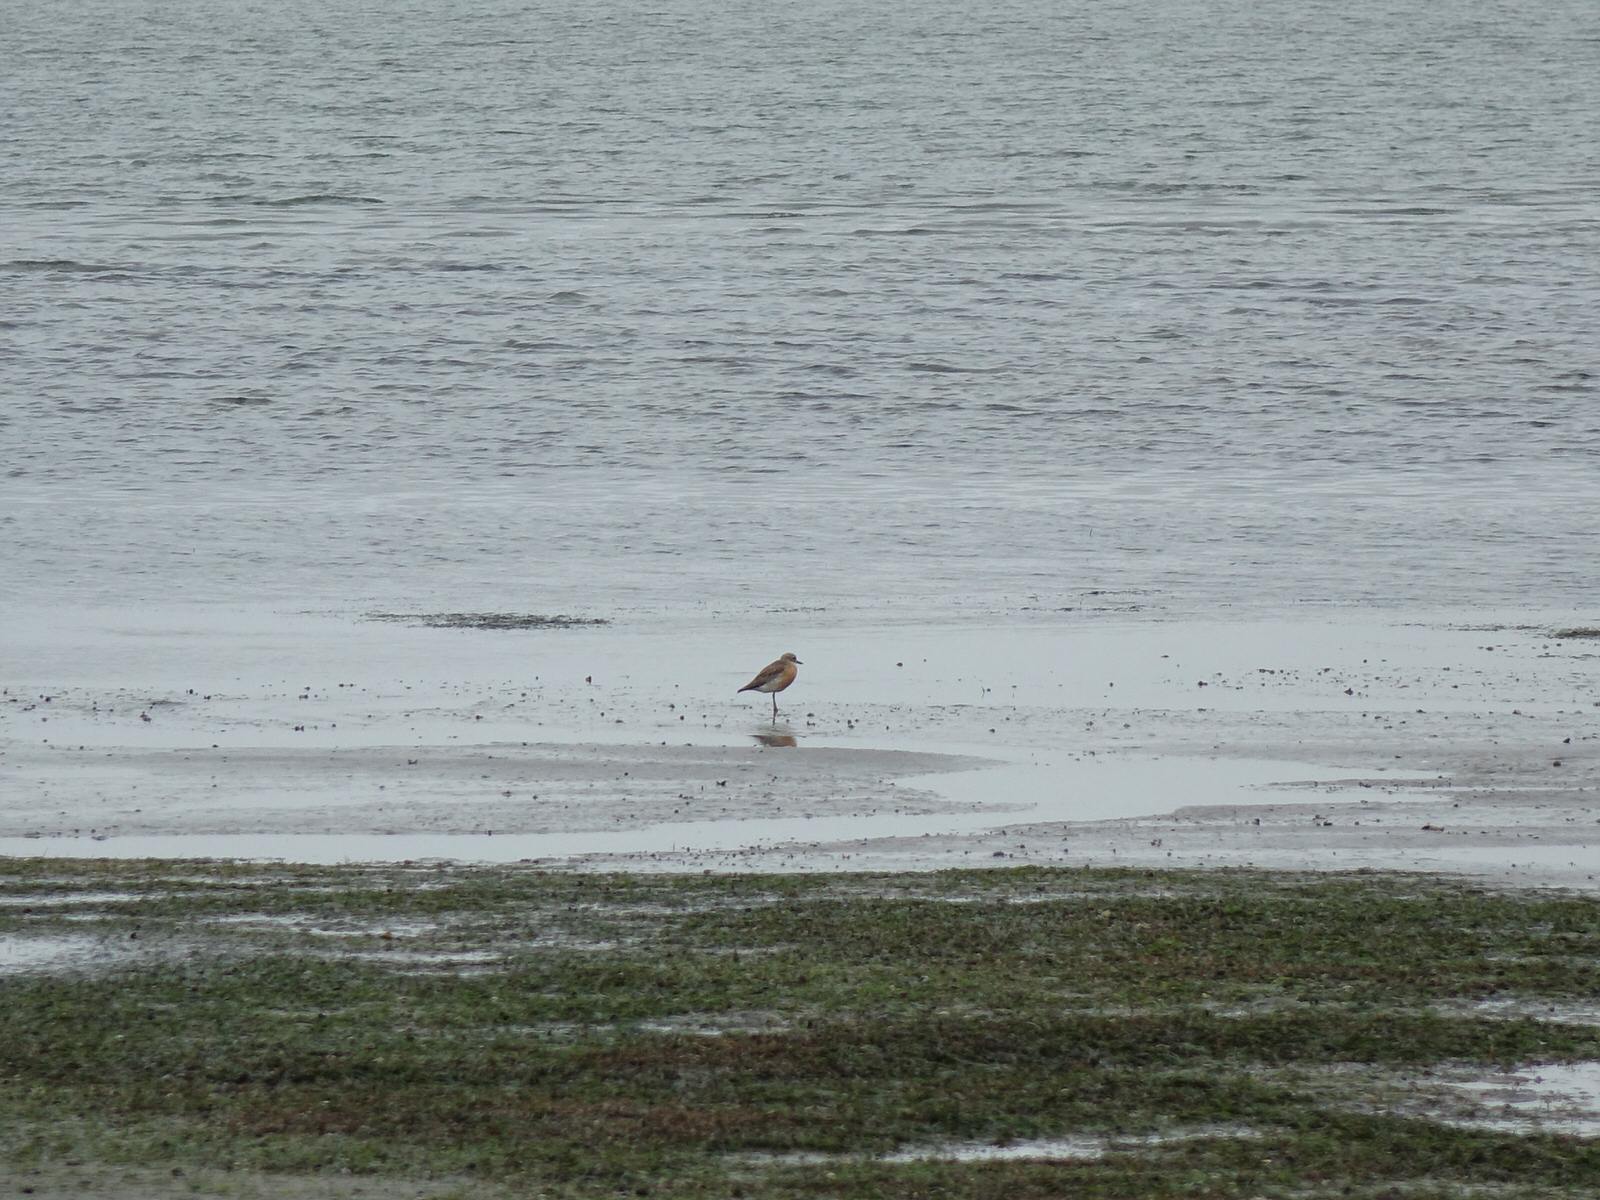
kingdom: Animalia
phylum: Chordata
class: Aves
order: Charadriiformes
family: Charadriidae
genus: Anarhynchus
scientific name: Anarhynchus
